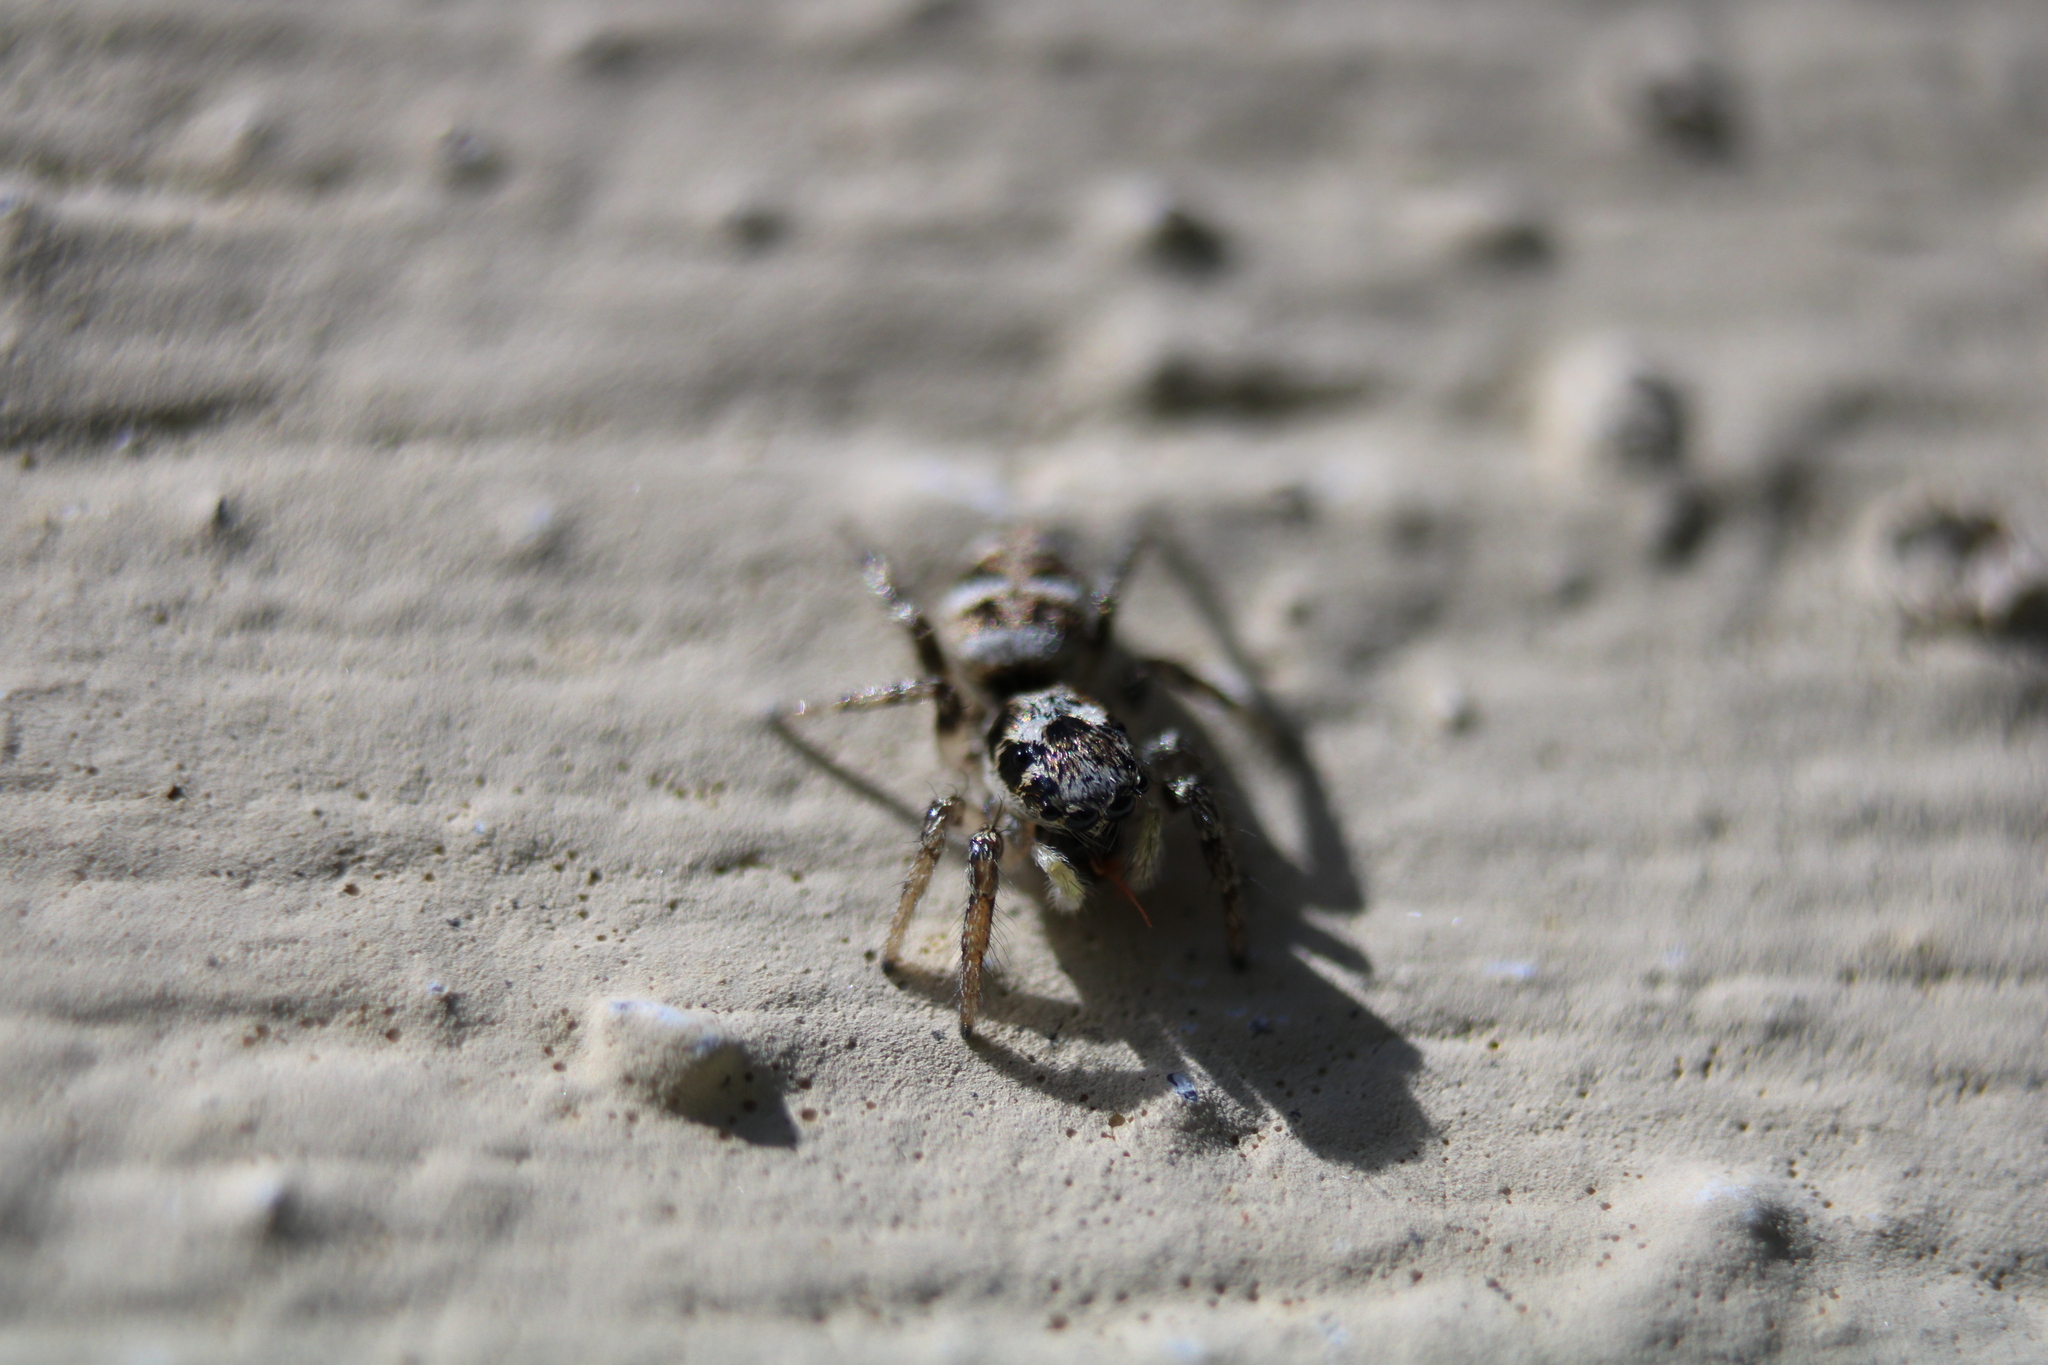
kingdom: Animalia
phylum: Arthropoda
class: Arachnida
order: Araneae
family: Salticidae
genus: Salticus
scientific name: Salticus scenicus
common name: Zebra jumper
